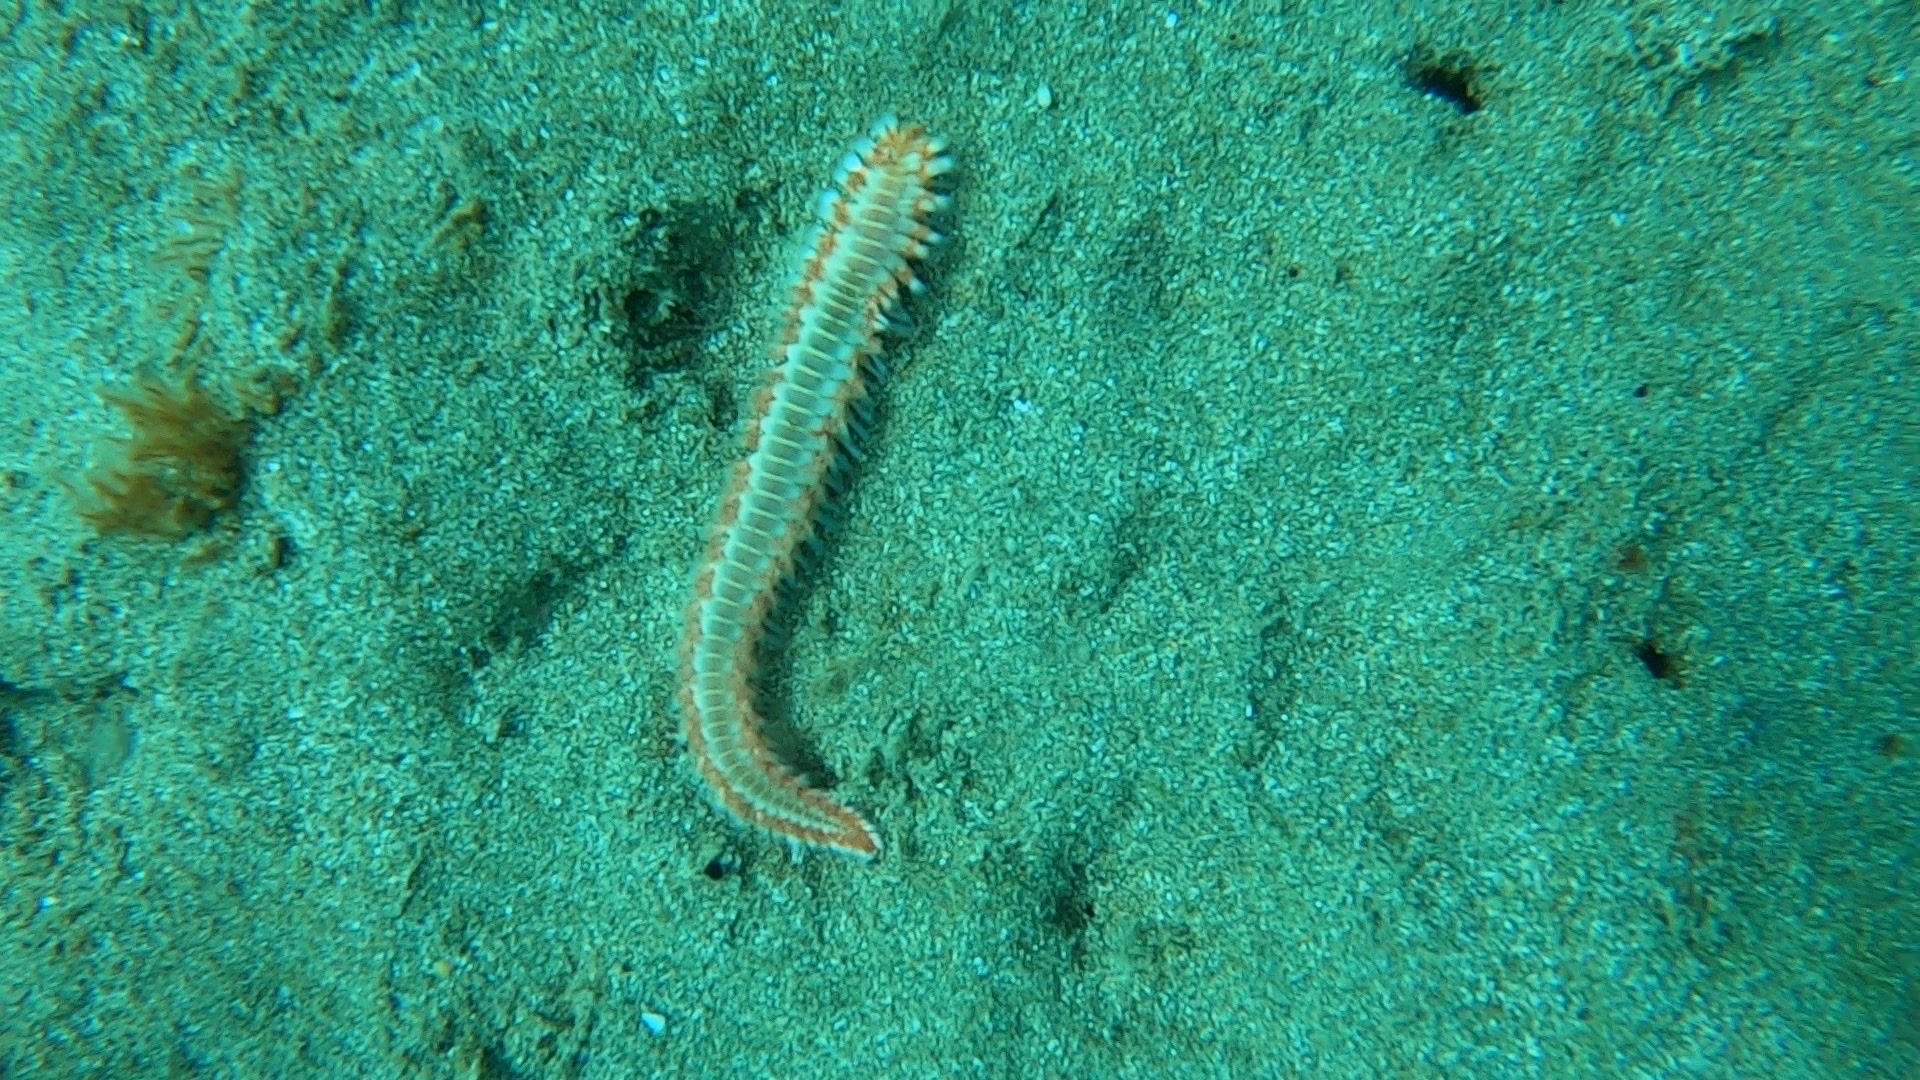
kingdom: Animalia
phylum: Annelida
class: Polychaeta
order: Amphinomida
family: Amphinomidae
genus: Hermodice
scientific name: Hermodice carunculata
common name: Bearded fireworm
